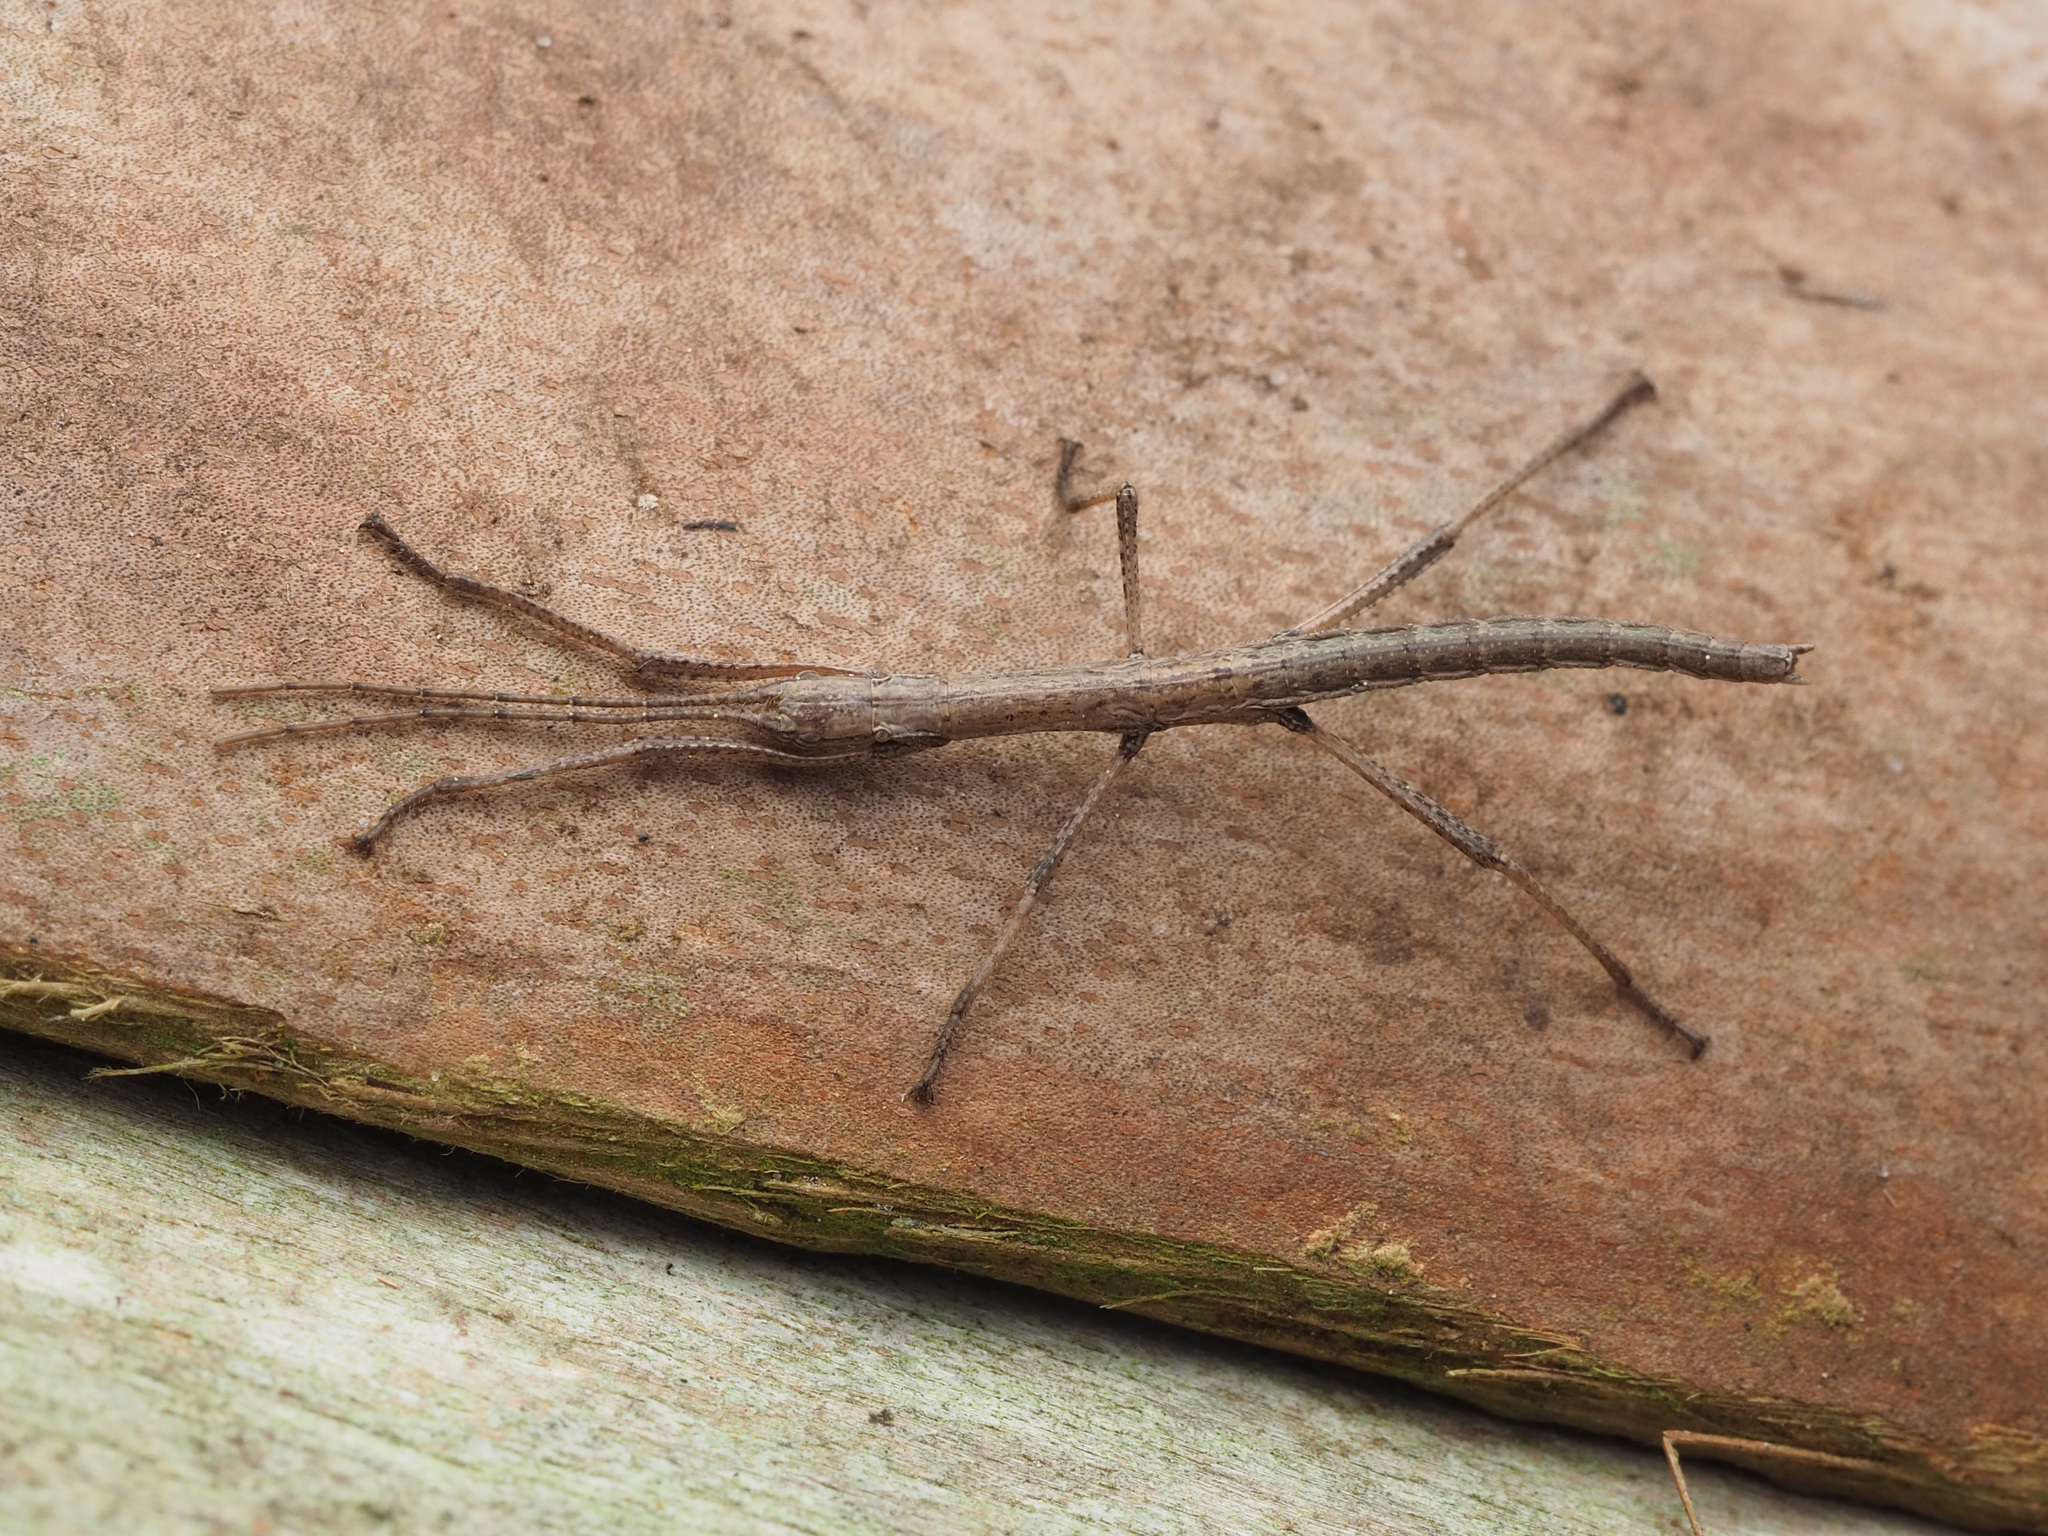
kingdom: Animalia
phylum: Arthropoda
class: Insecta
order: Phasmida
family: Pseudophasmatidae
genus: Anisomorpha
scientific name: Anisomorpha buprestoides
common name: Florida stick insect
